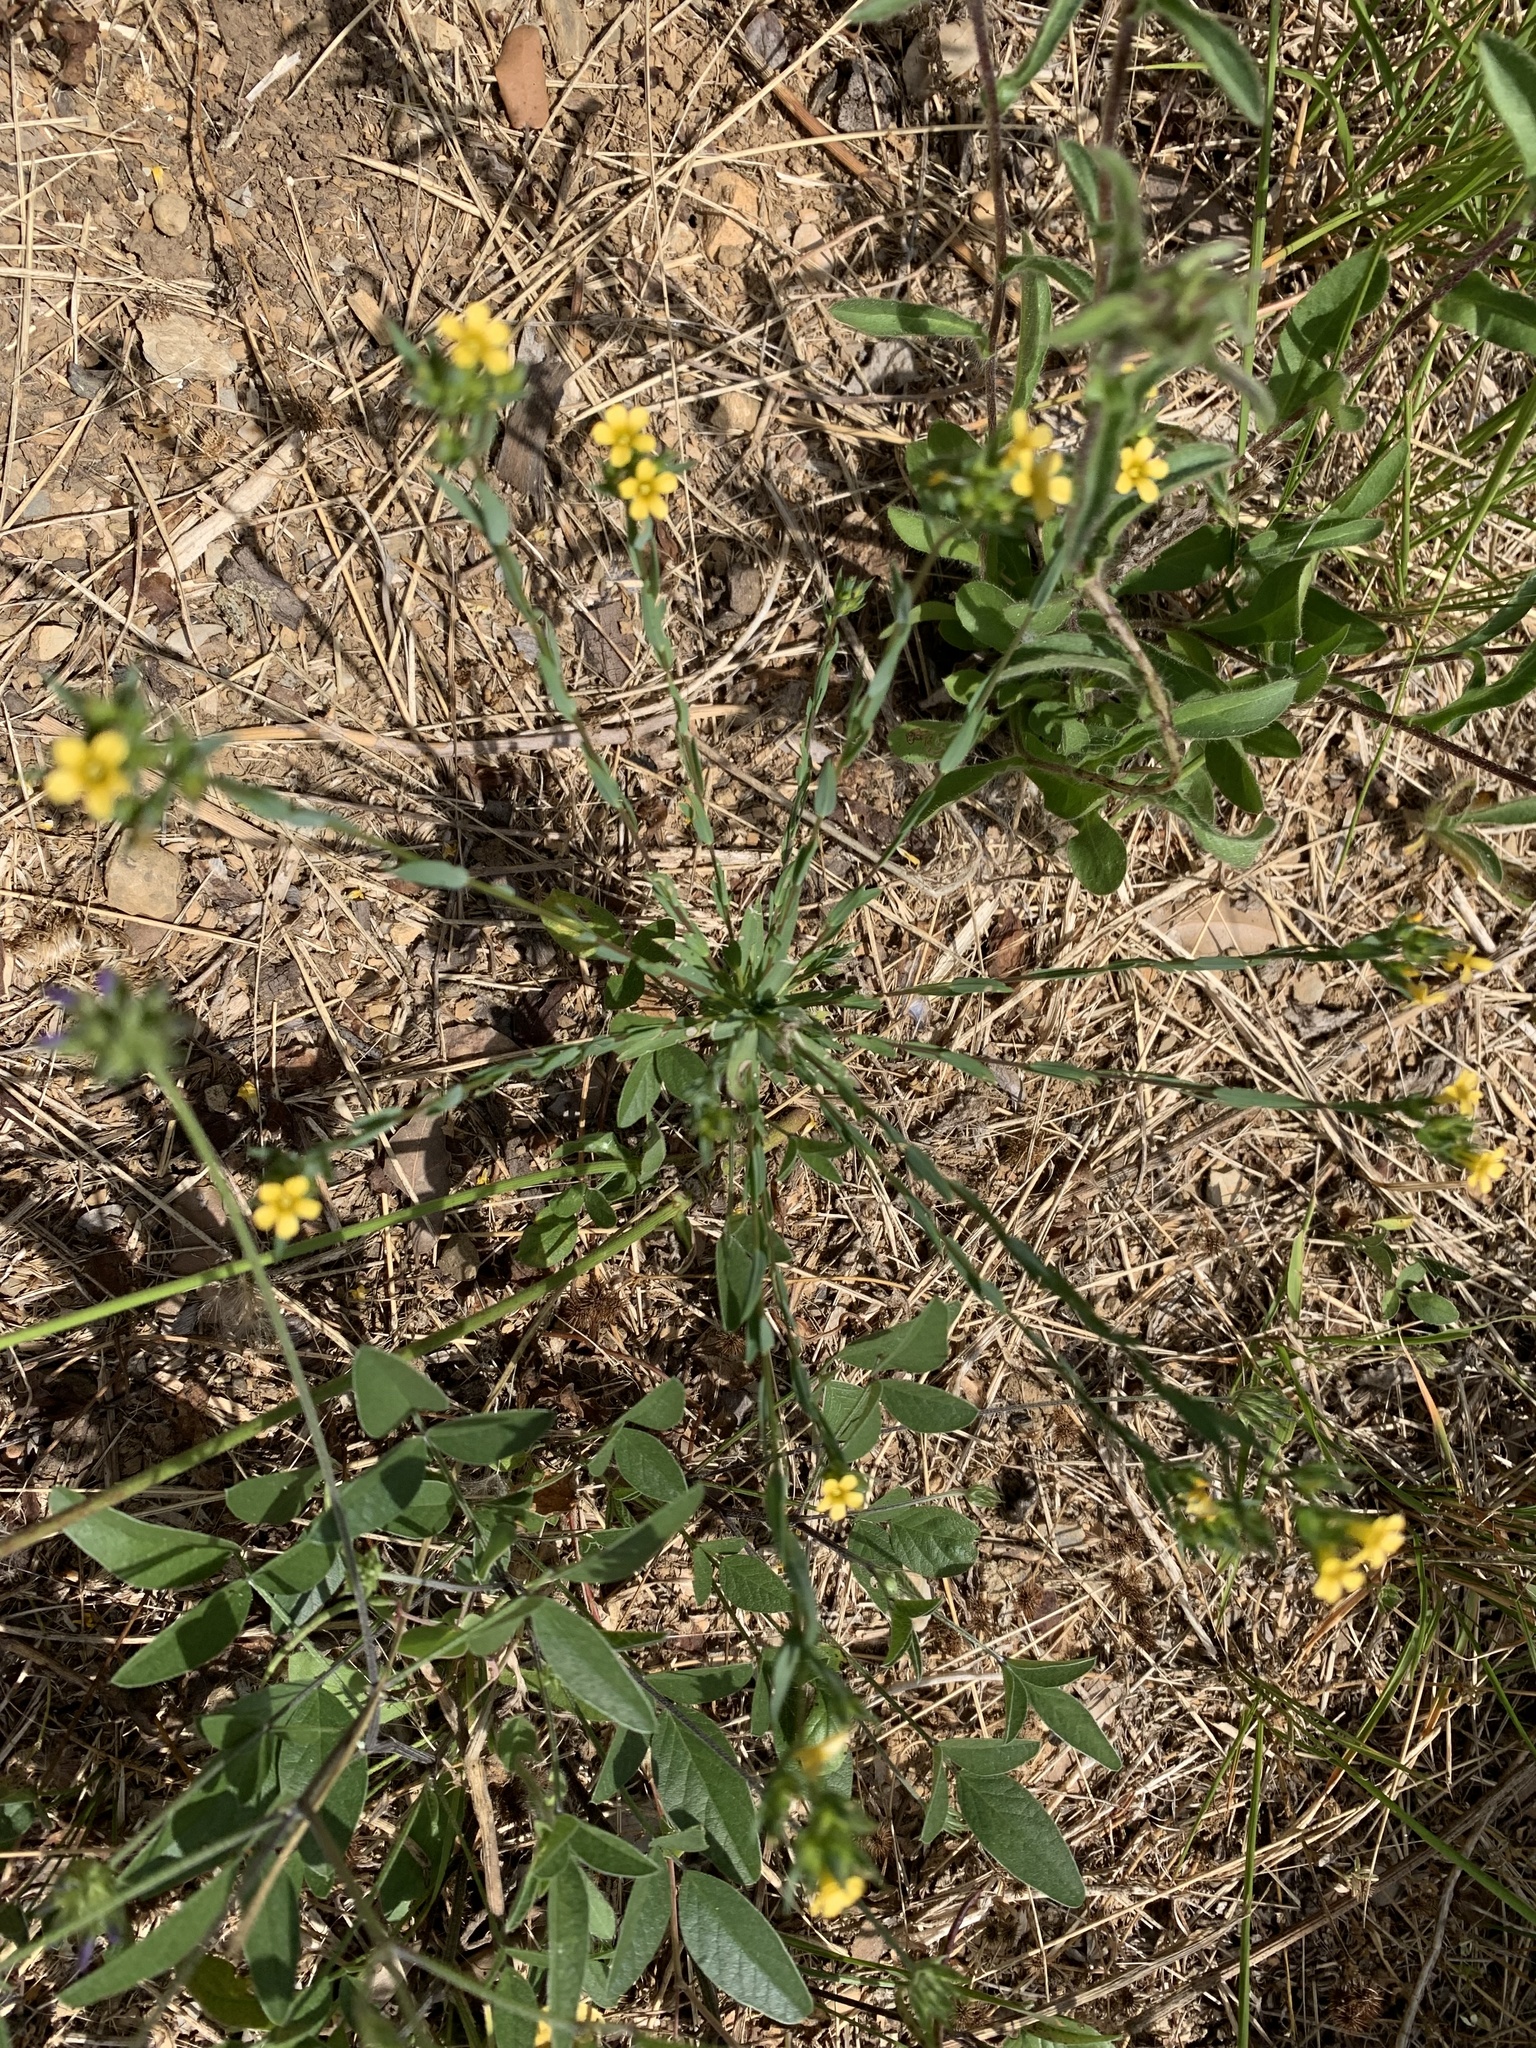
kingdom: Plantae
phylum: Tracheophyta
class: Magnoliopsida
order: Malpighiales
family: Linaceae
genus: Linum
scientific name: Linum strictum
